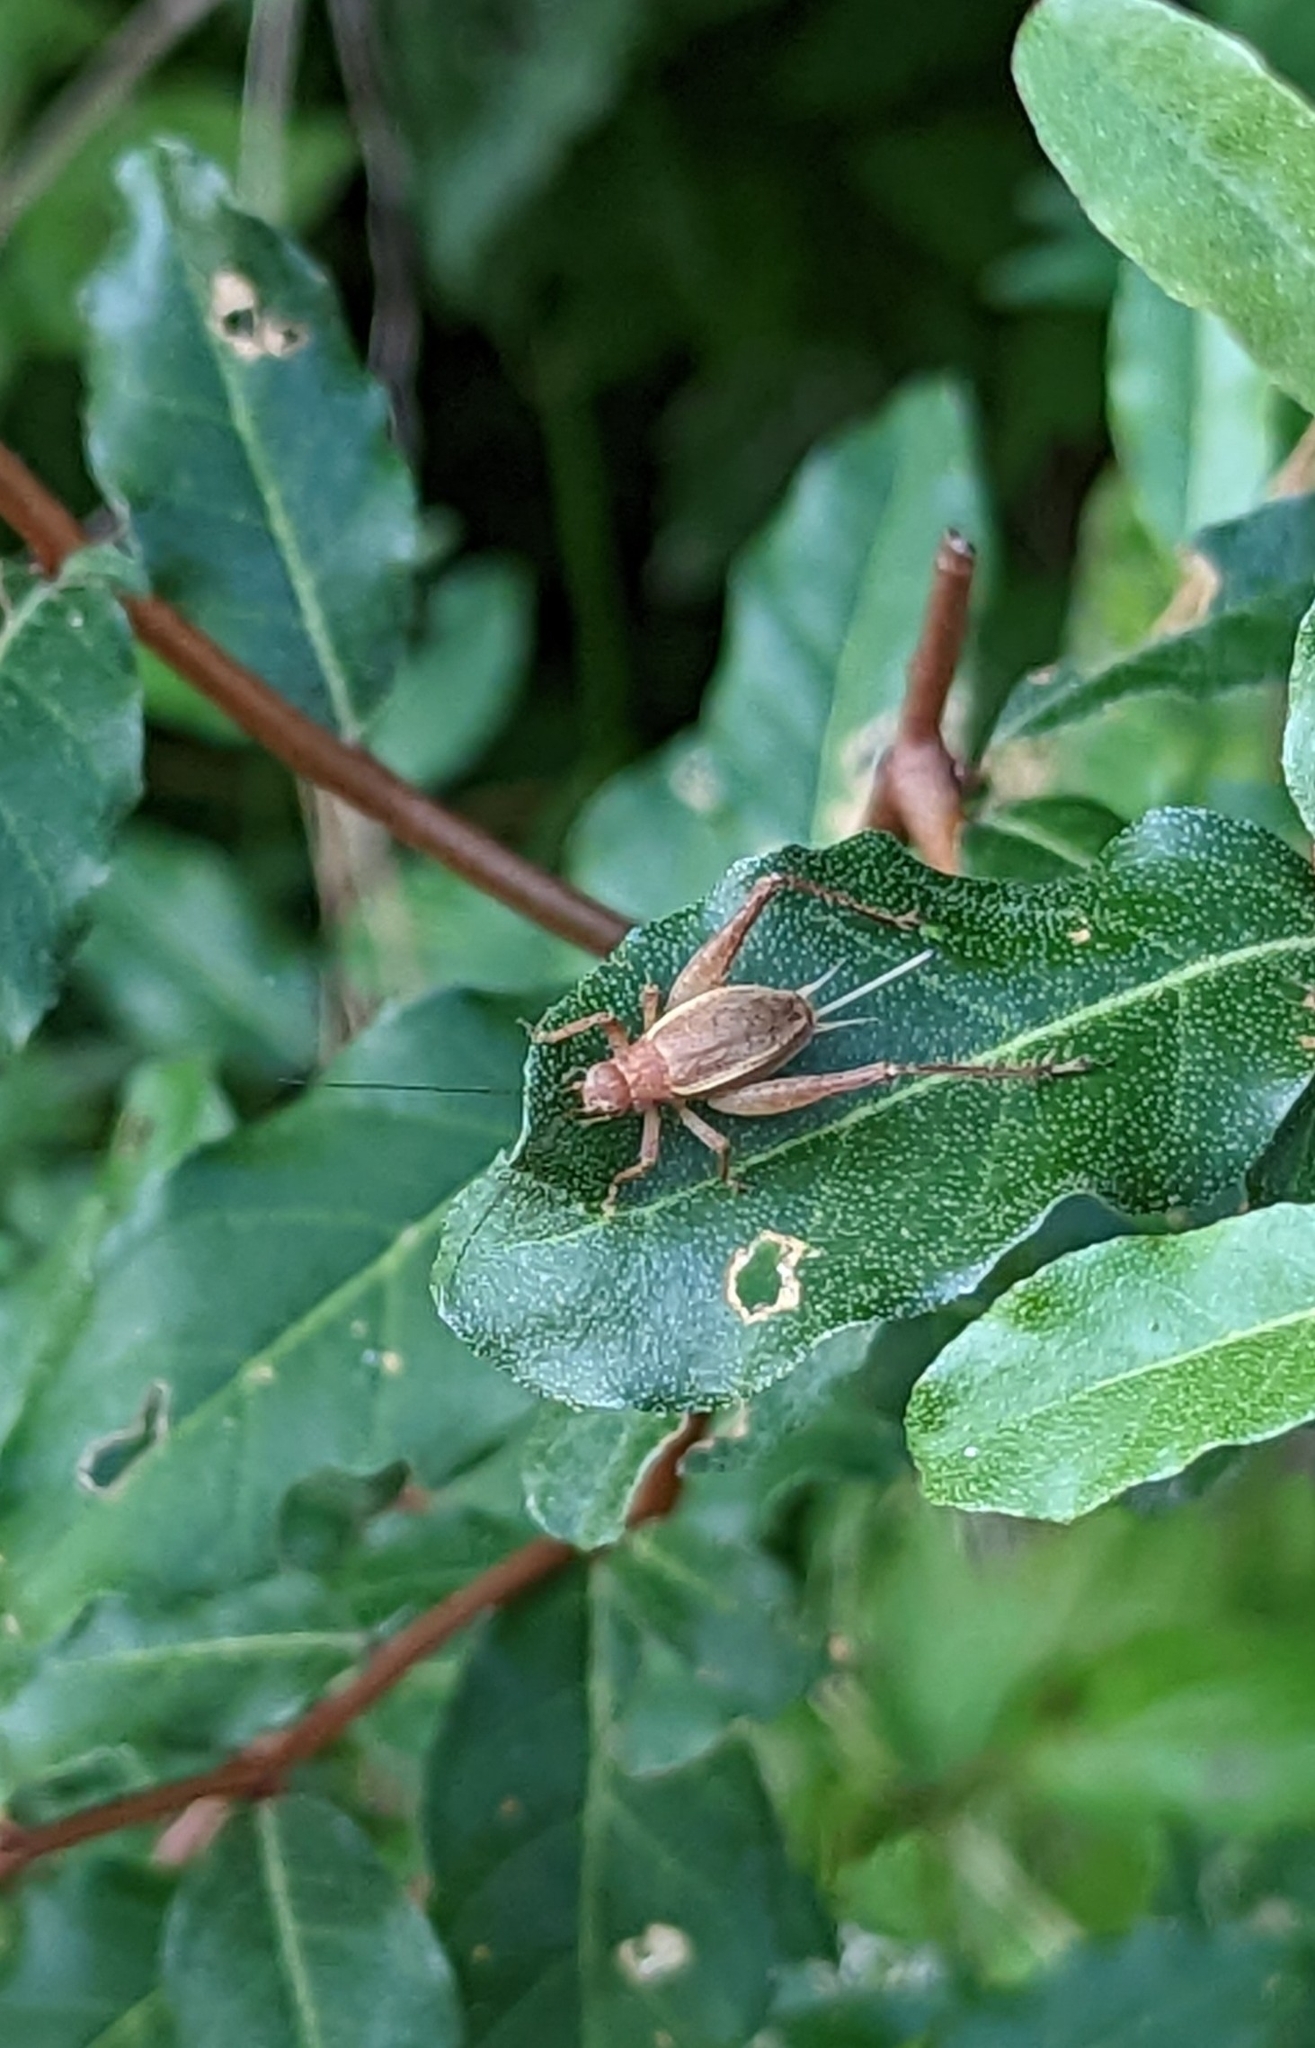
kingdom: Animalia
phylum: Arthropoda
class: Insecta
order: Orthoptera
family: Gryllidae
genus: Hapithus
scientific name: Hapithus agitator
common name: Restless bush cricket
